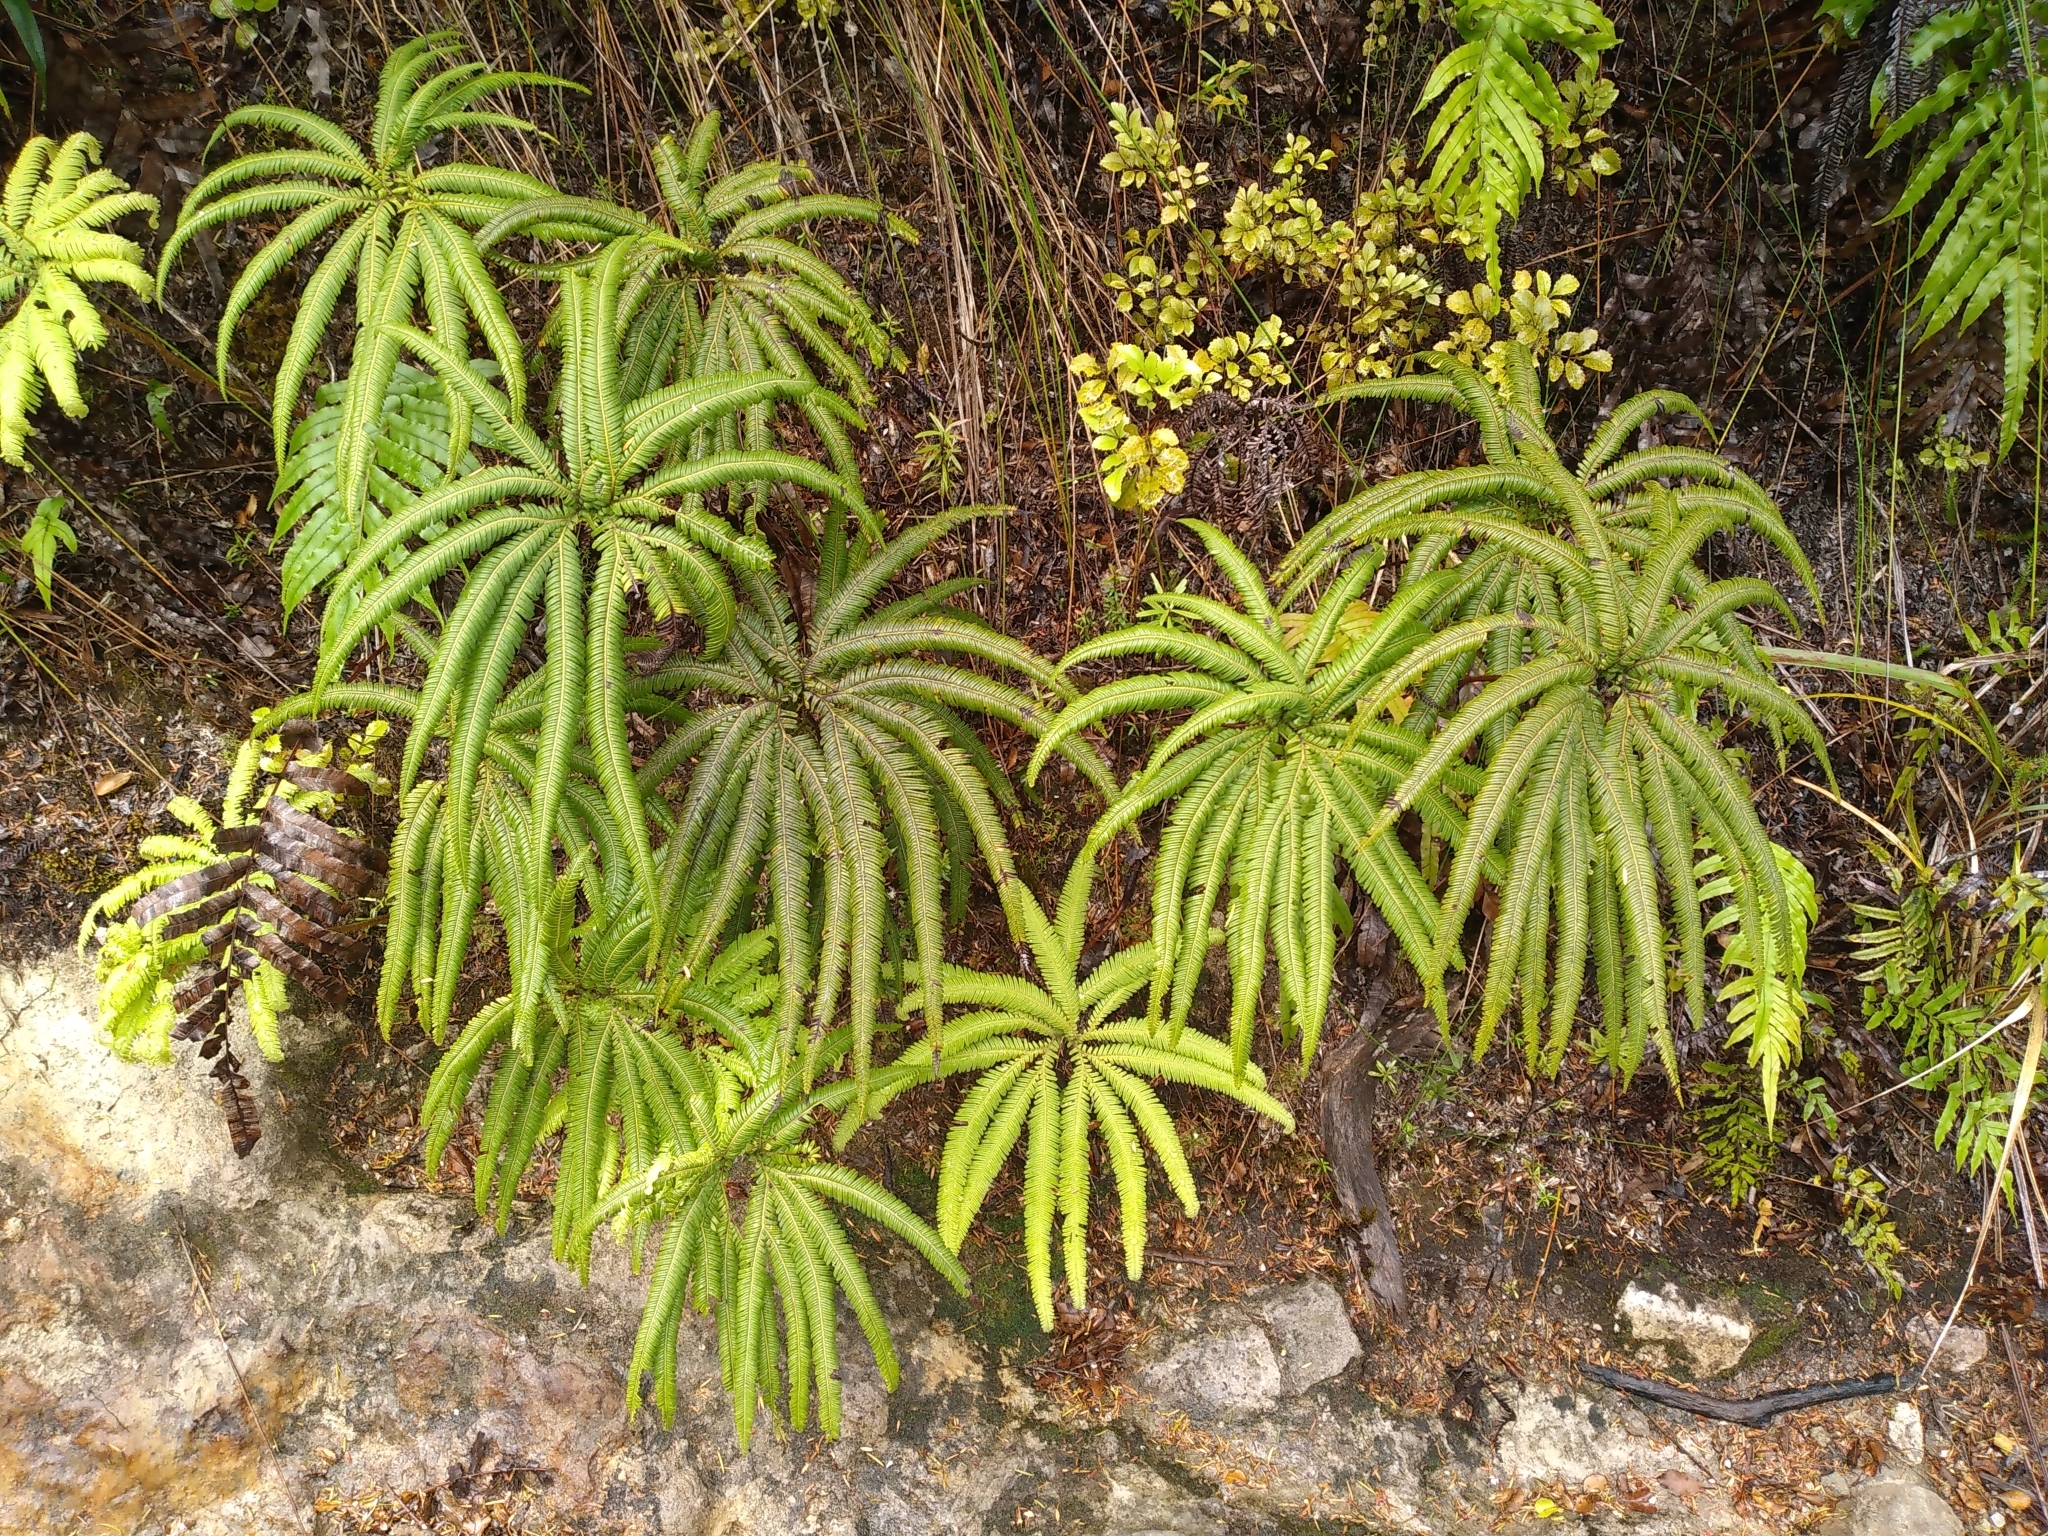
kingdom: Plantae
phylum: Tracheophyta
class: Polypodiopsida
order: Gleicheniales
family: Gleicheniaceae
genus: Sticherus
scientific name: Sticherus cunninghamii
